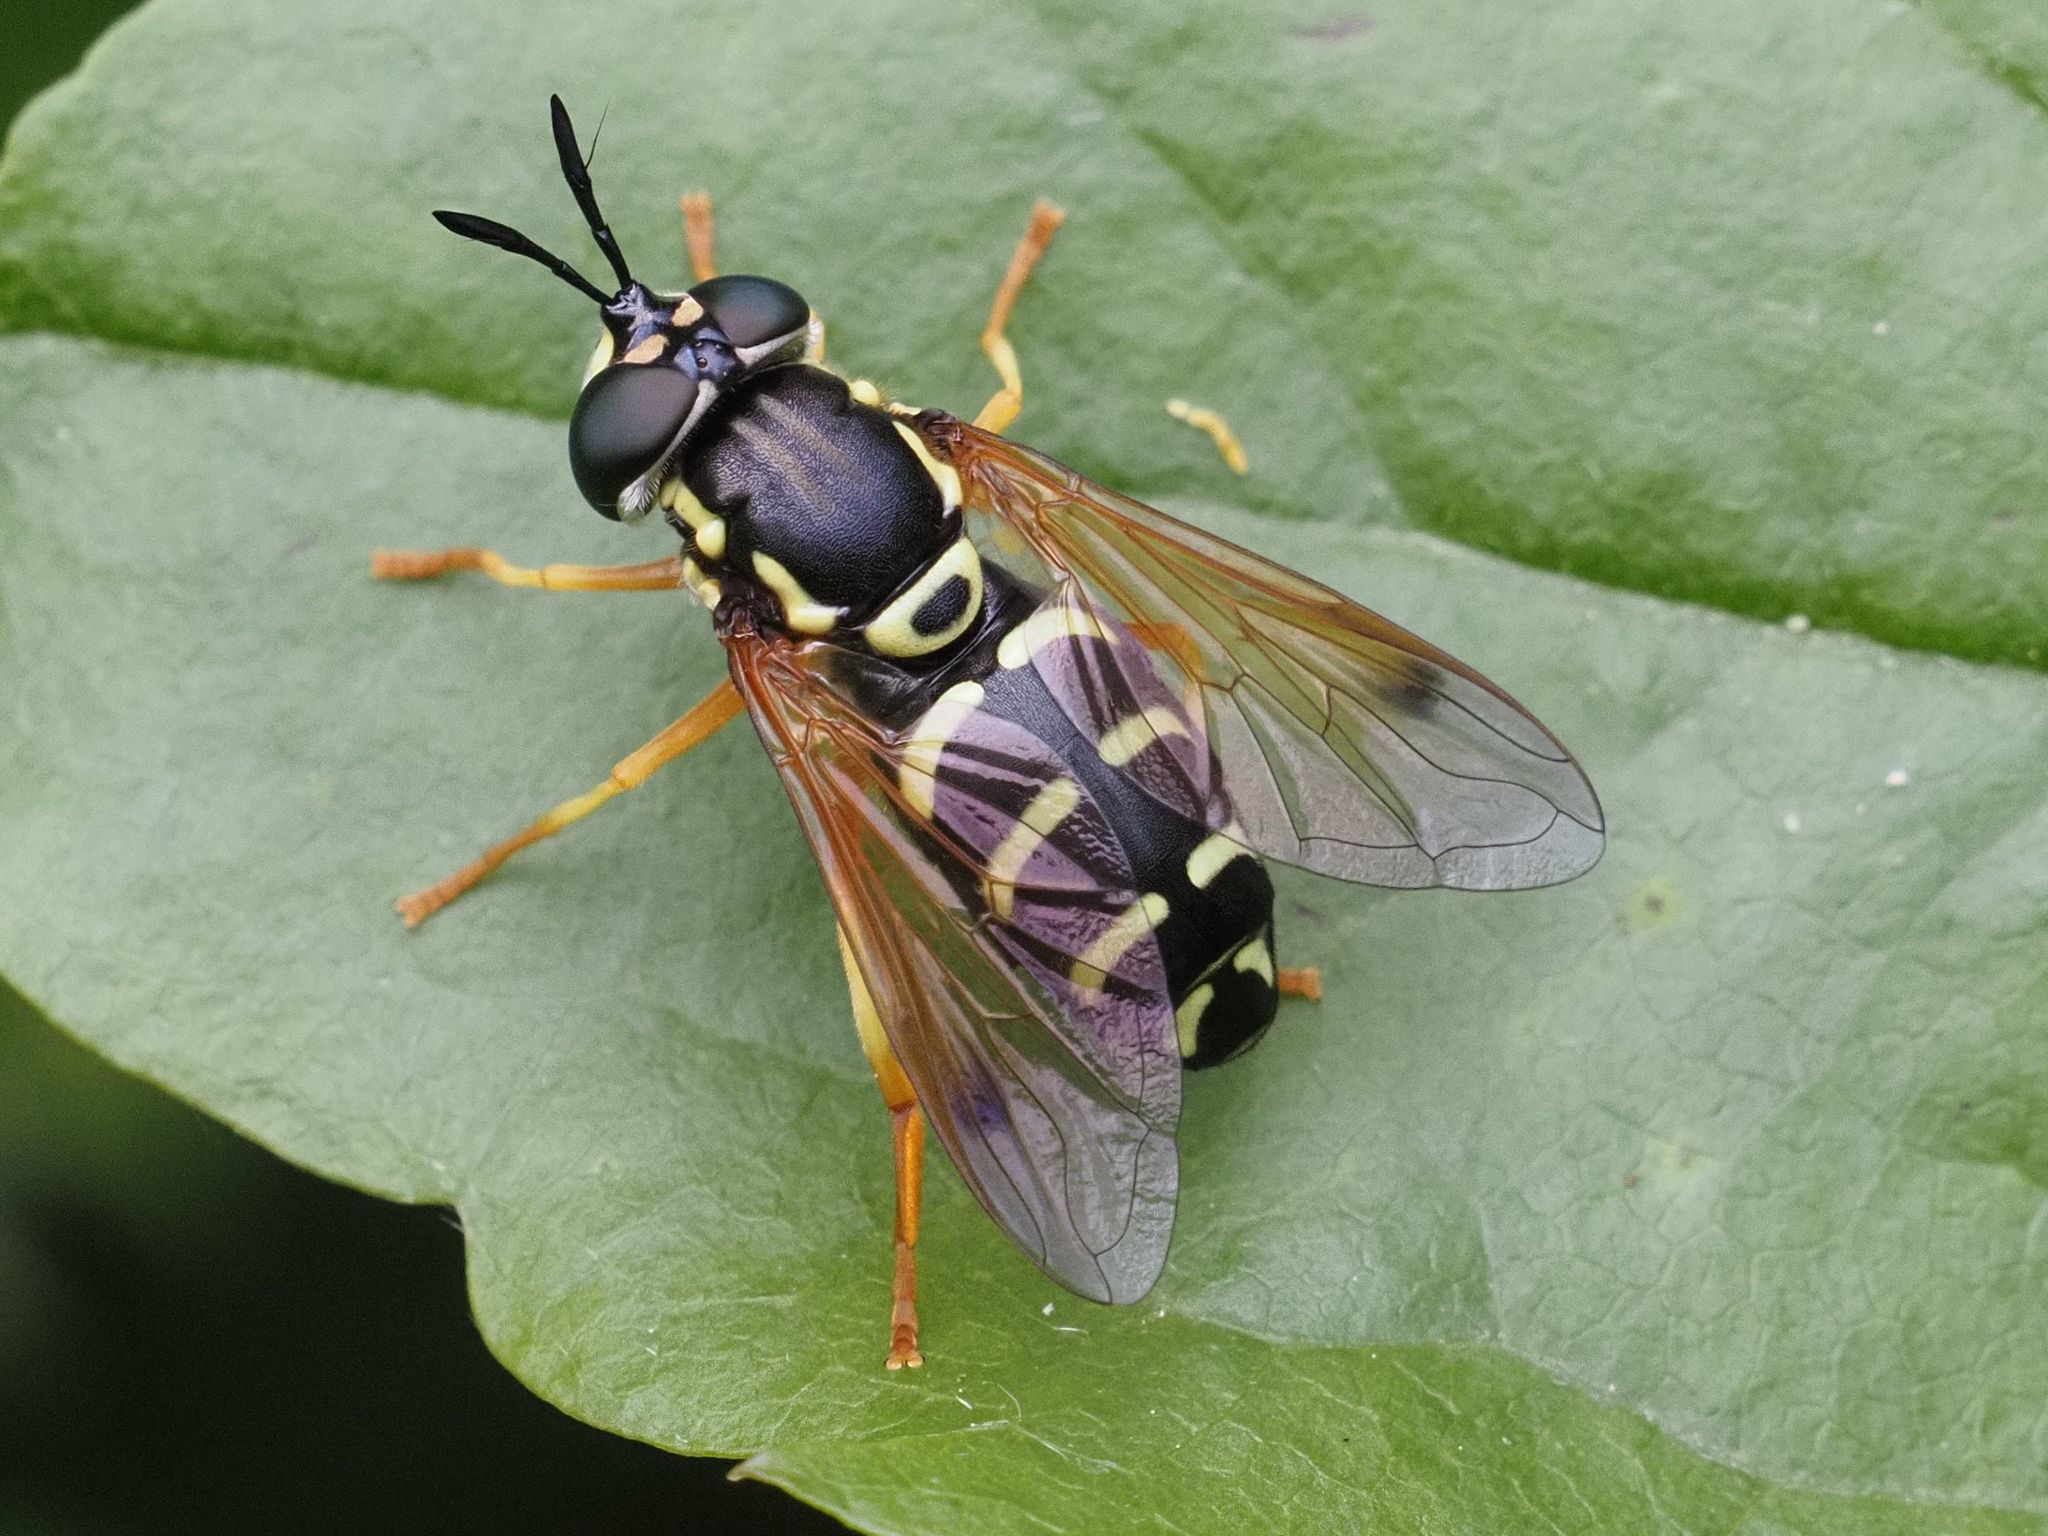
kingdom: Animalia
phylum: Arthropoda
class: Insecta
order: Diptera
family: Syrphidae
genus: Chrysotoxum
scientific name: Chrysotoxum festivum
